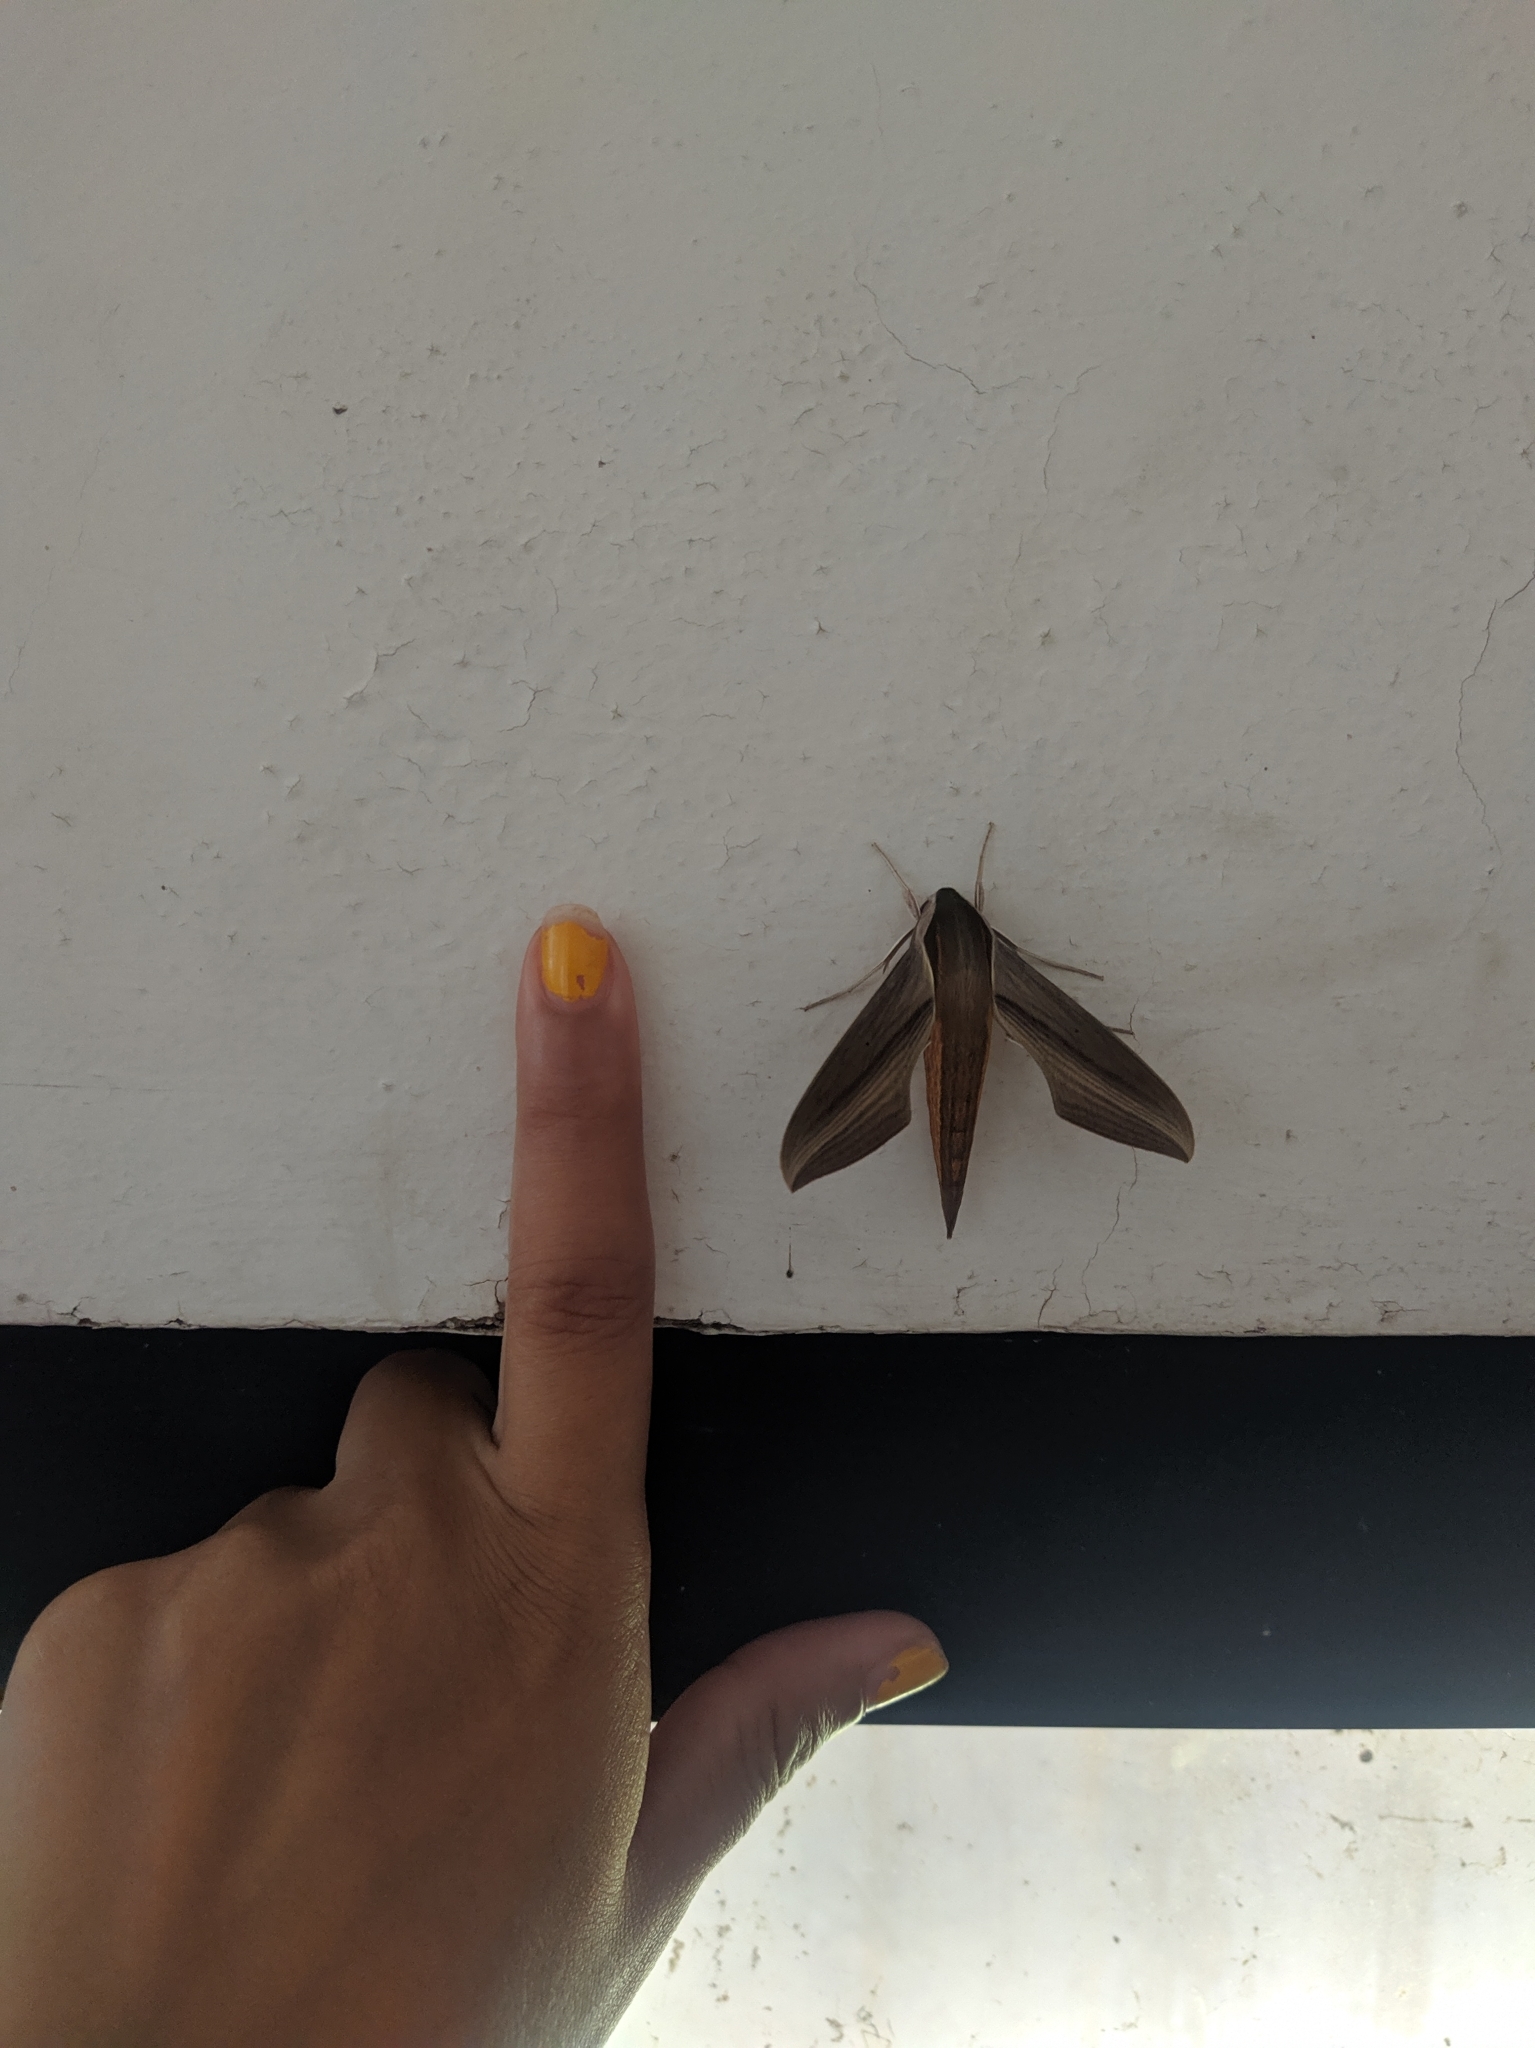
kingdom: Animalia
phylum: Arthropoda
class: Insecta
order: Lepidoptera
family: Sphingidae
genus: Xylophanes
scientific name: Xylophanes tersa
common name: Tersa sphinx
